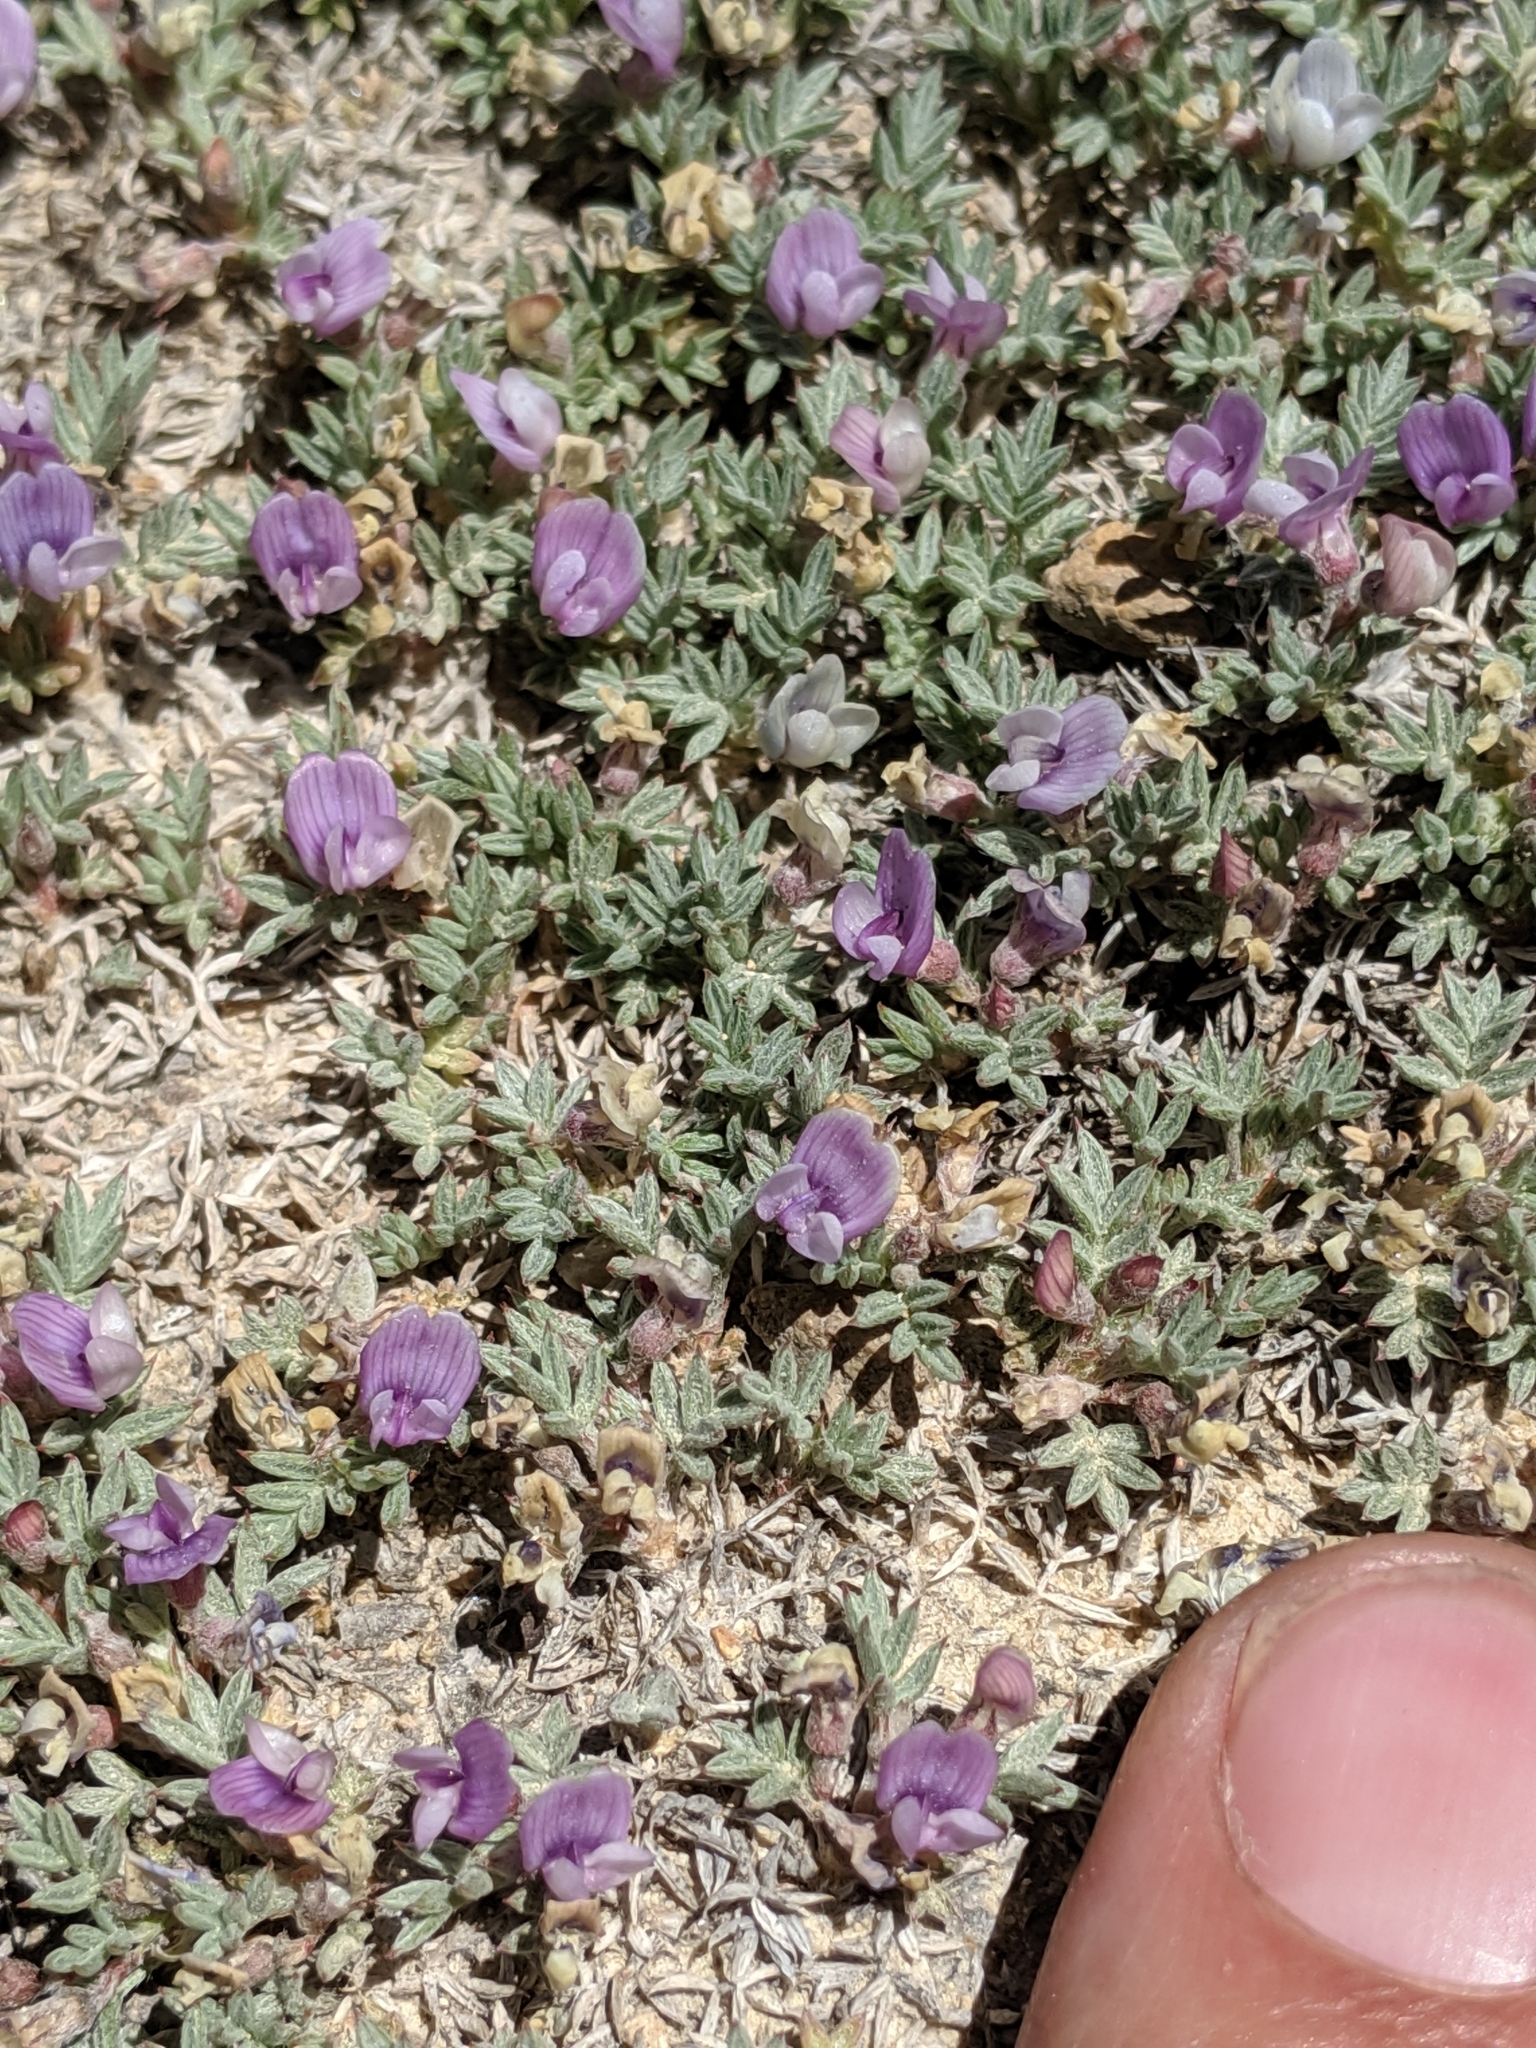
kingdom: Plantae
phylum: Tracheophyta
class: Magnoliopsida
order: Fabales
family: Fabaceae
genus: Astragalus
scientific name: Astragalus kentrophyta
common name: Prickly milk-vetch
